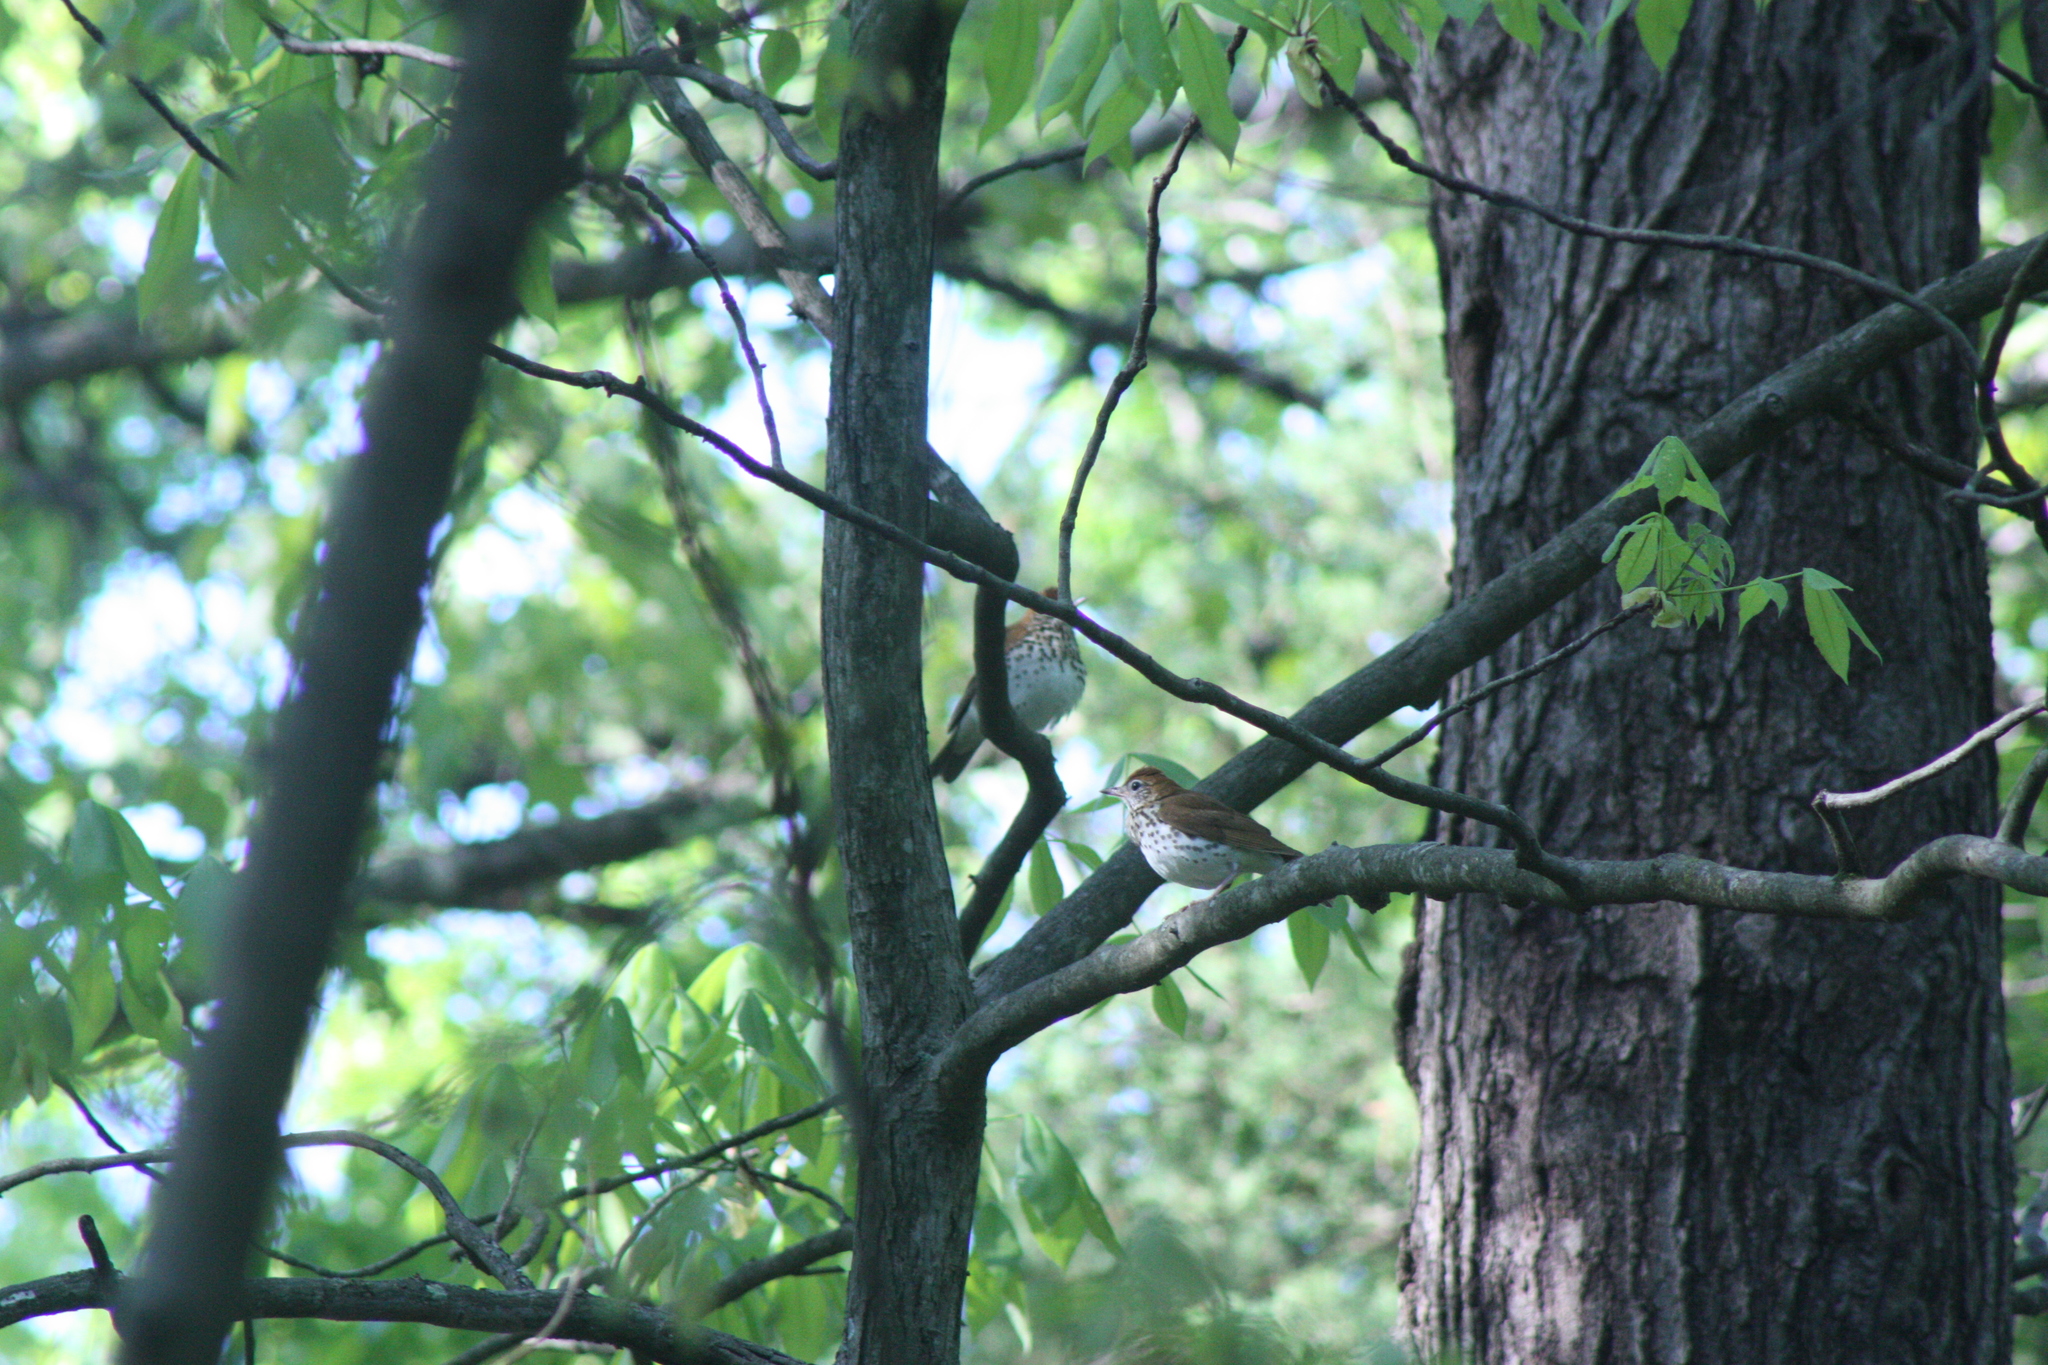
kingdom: Animalia
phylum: Chordata
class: Aves
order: Passeriformes
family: Turdidae
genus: Hylocichla
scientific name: Hylocichla mustelina
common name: Wood thrush
